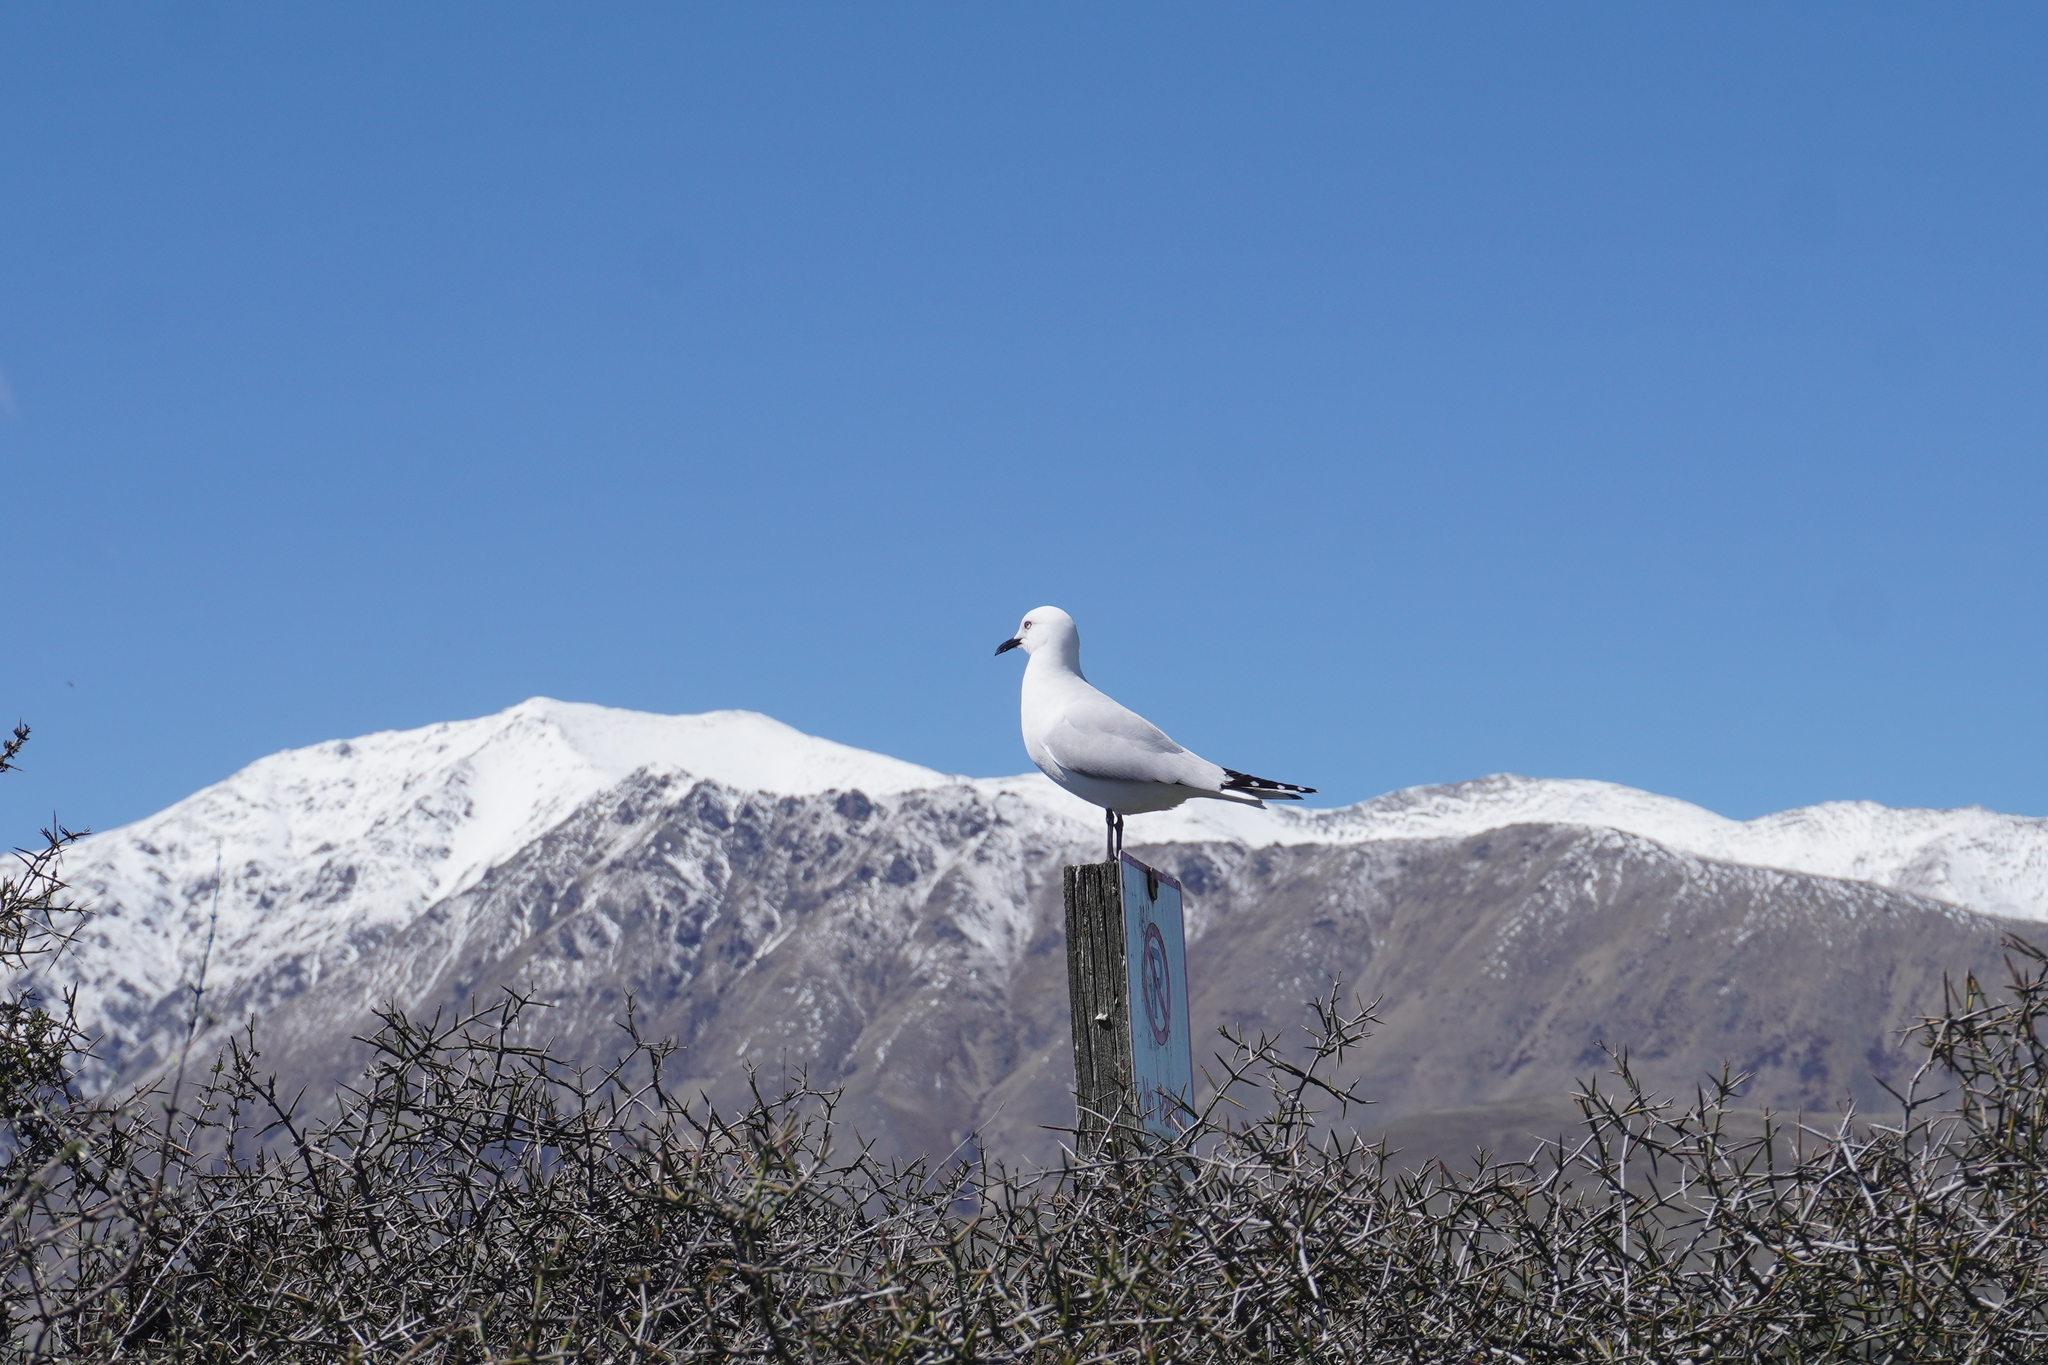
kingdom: Animalia
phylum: Chordata
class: Aves
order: Charadriiformes
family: Laridae
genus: Chroicocephalus
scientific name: Chroicocephalus bulleri
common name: Black-billed gull
